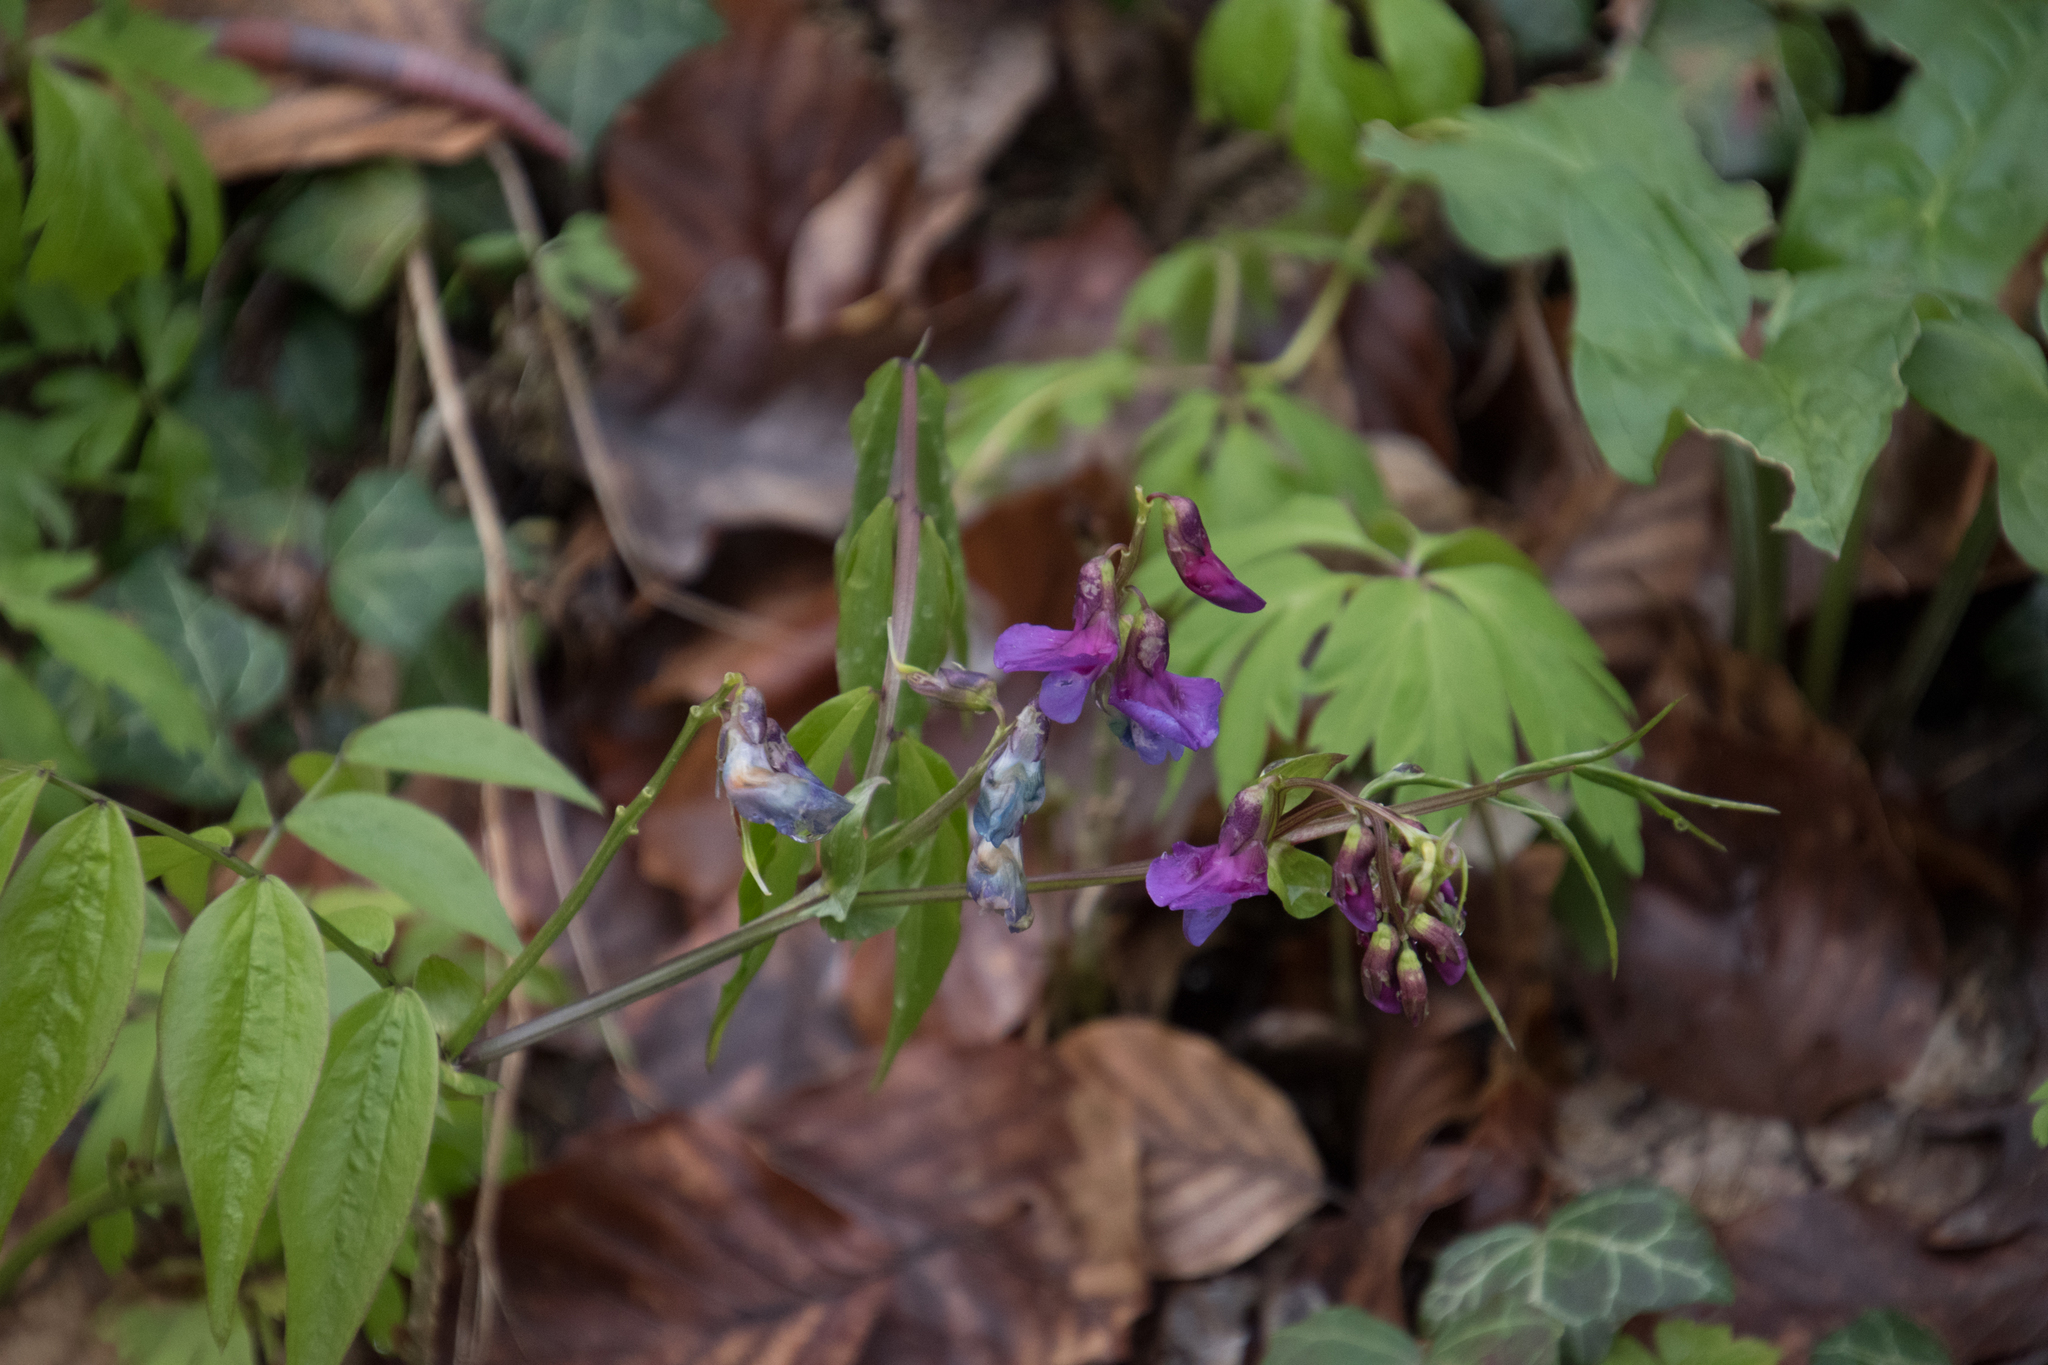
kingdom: Plantae
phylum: Tracheophyta
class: Magnoliopsida
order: Fabales
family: Fabaceae
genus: Lathyrus
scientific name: Lathyrus vernus
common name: Spring pea
